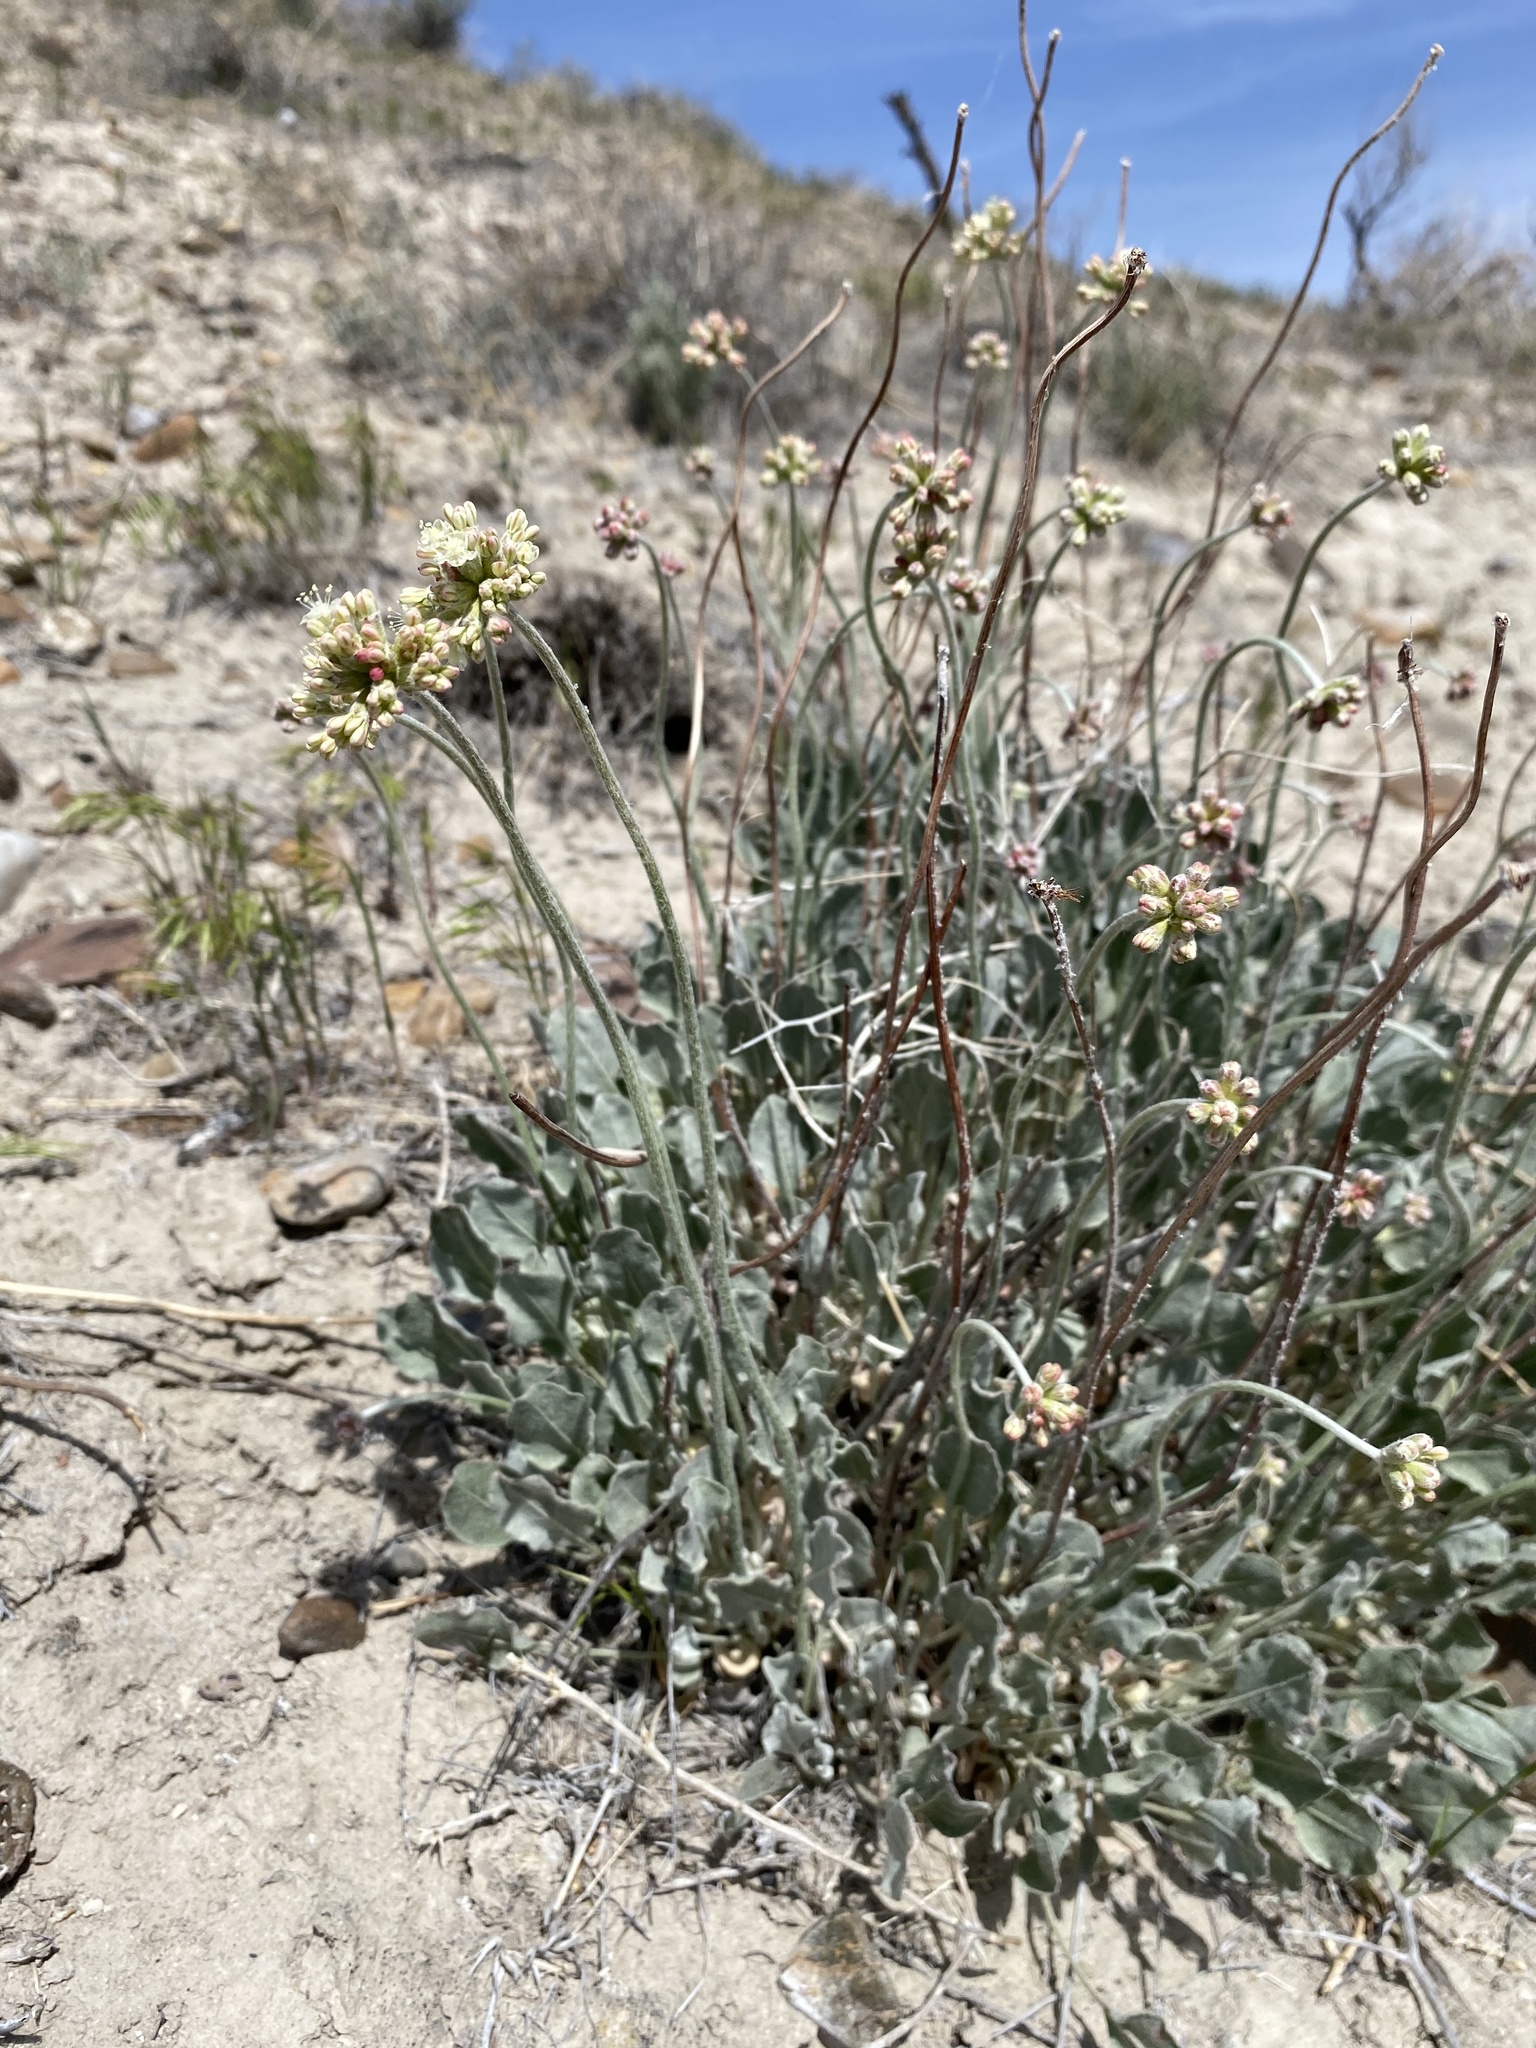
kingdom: Plantae
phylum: Tracheophyta
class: Magnoliopsida
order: Caryophyllales
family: Polygonaceae
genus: Eriogonum
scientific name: Eriogonum ovalifolium
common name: Cushion buckwheat
